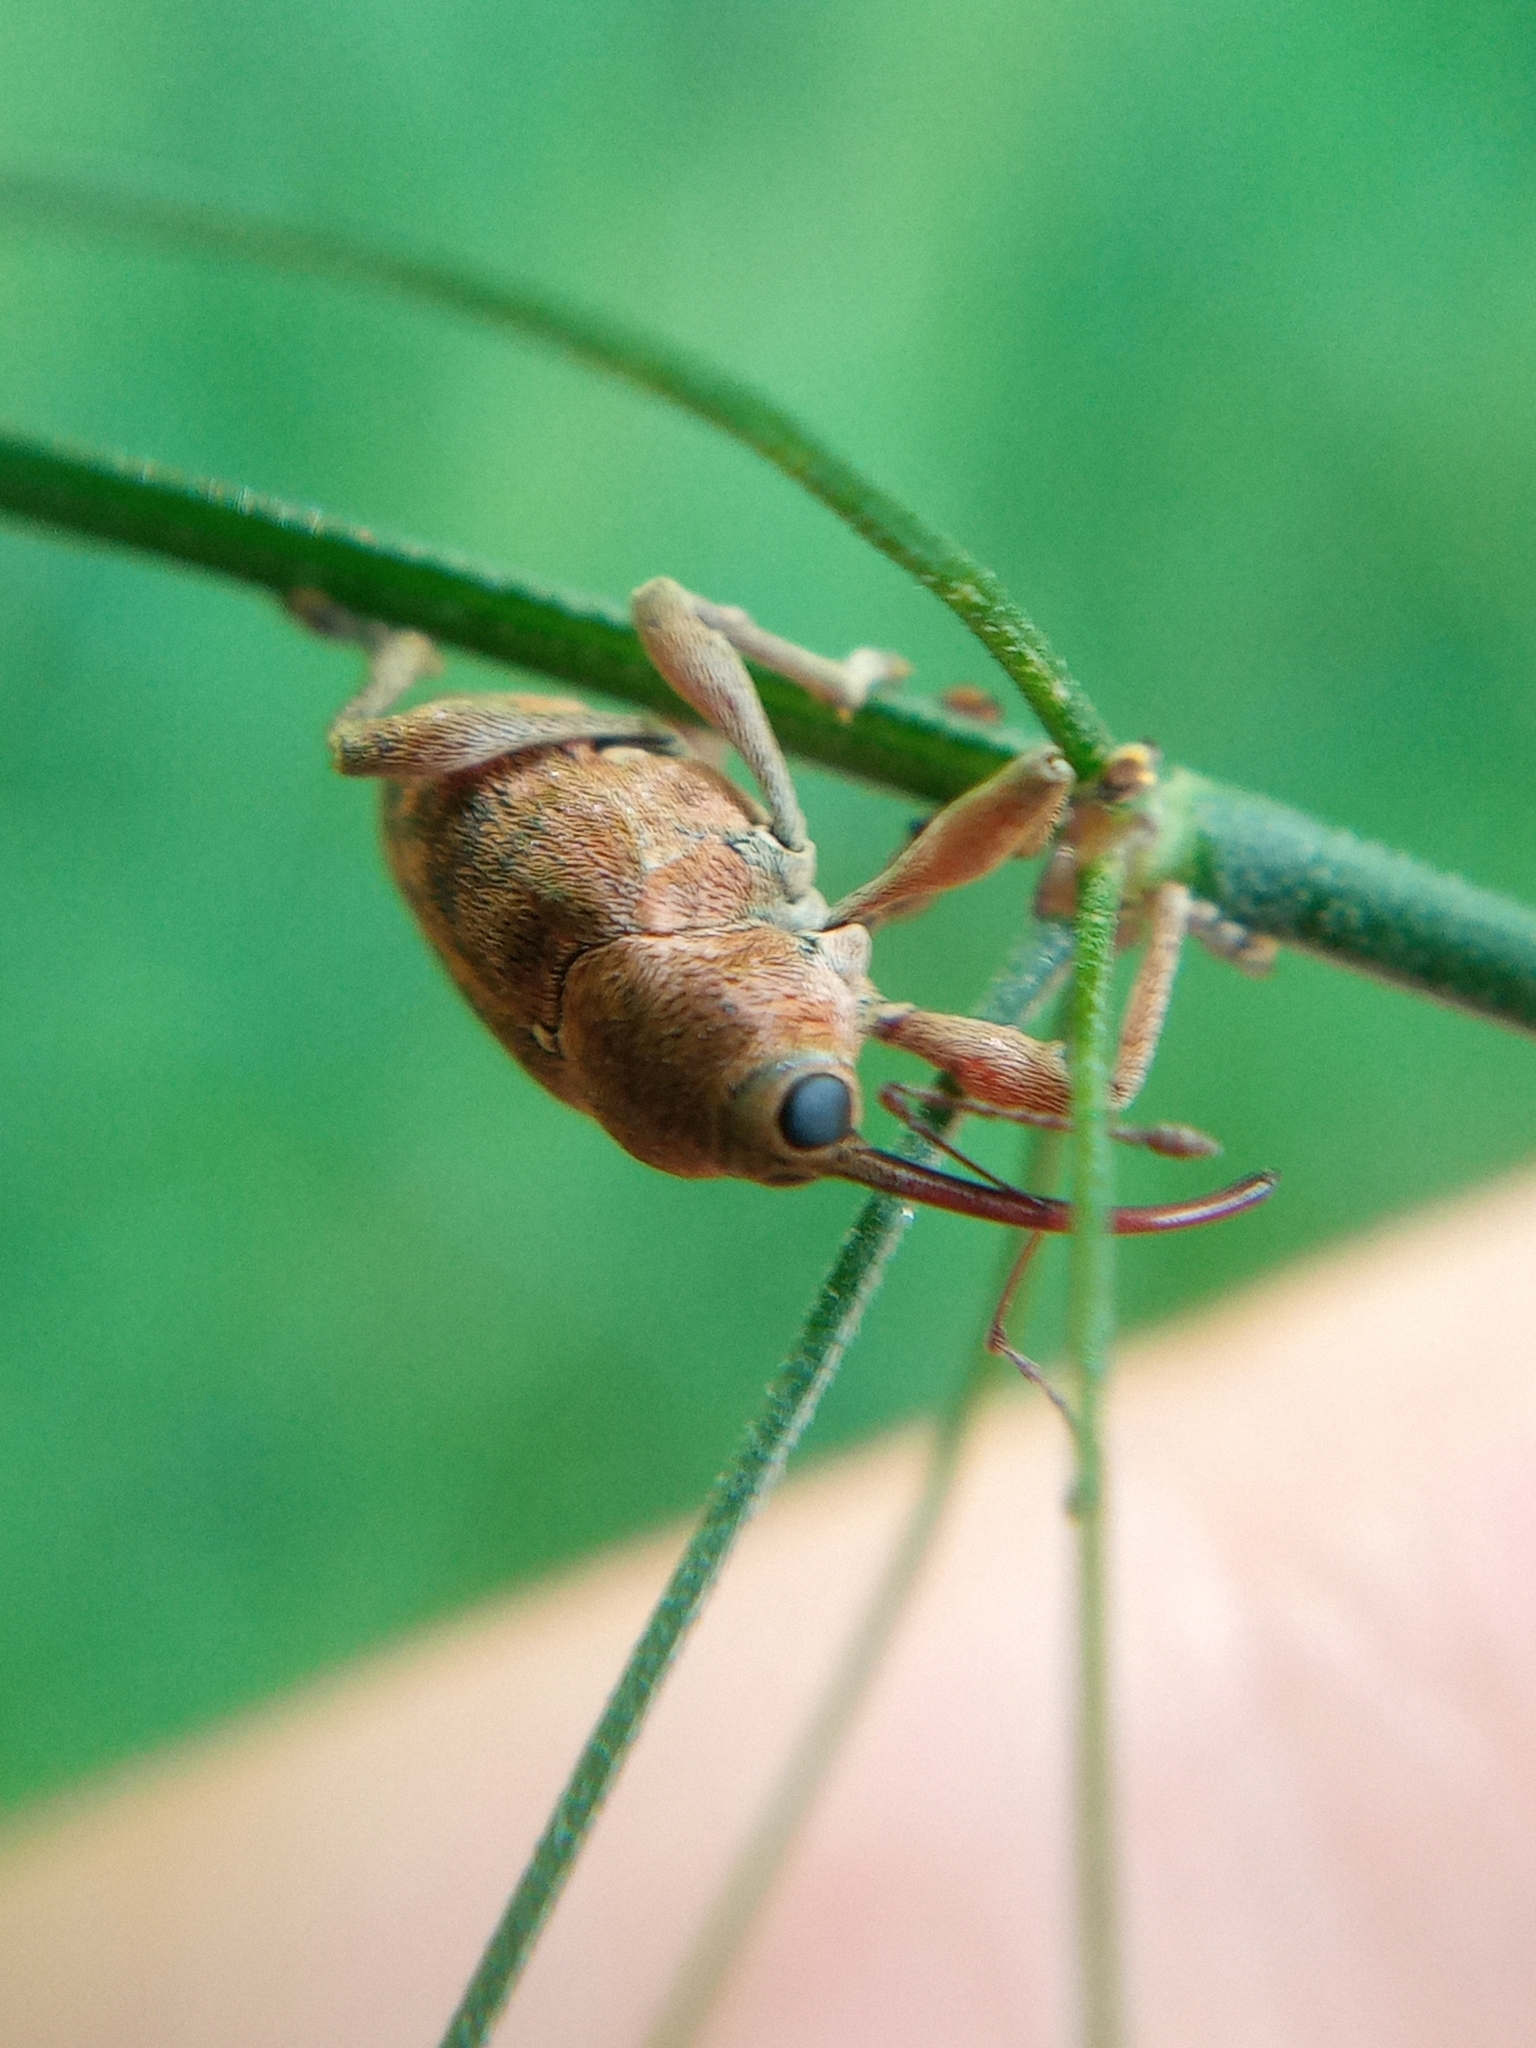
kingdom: Animalia
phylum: Arthropoda
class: Insecta
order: Coleoptera
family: Curculionidae
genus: Curculio
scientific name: Curculio glandium
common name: Acorn weevil
